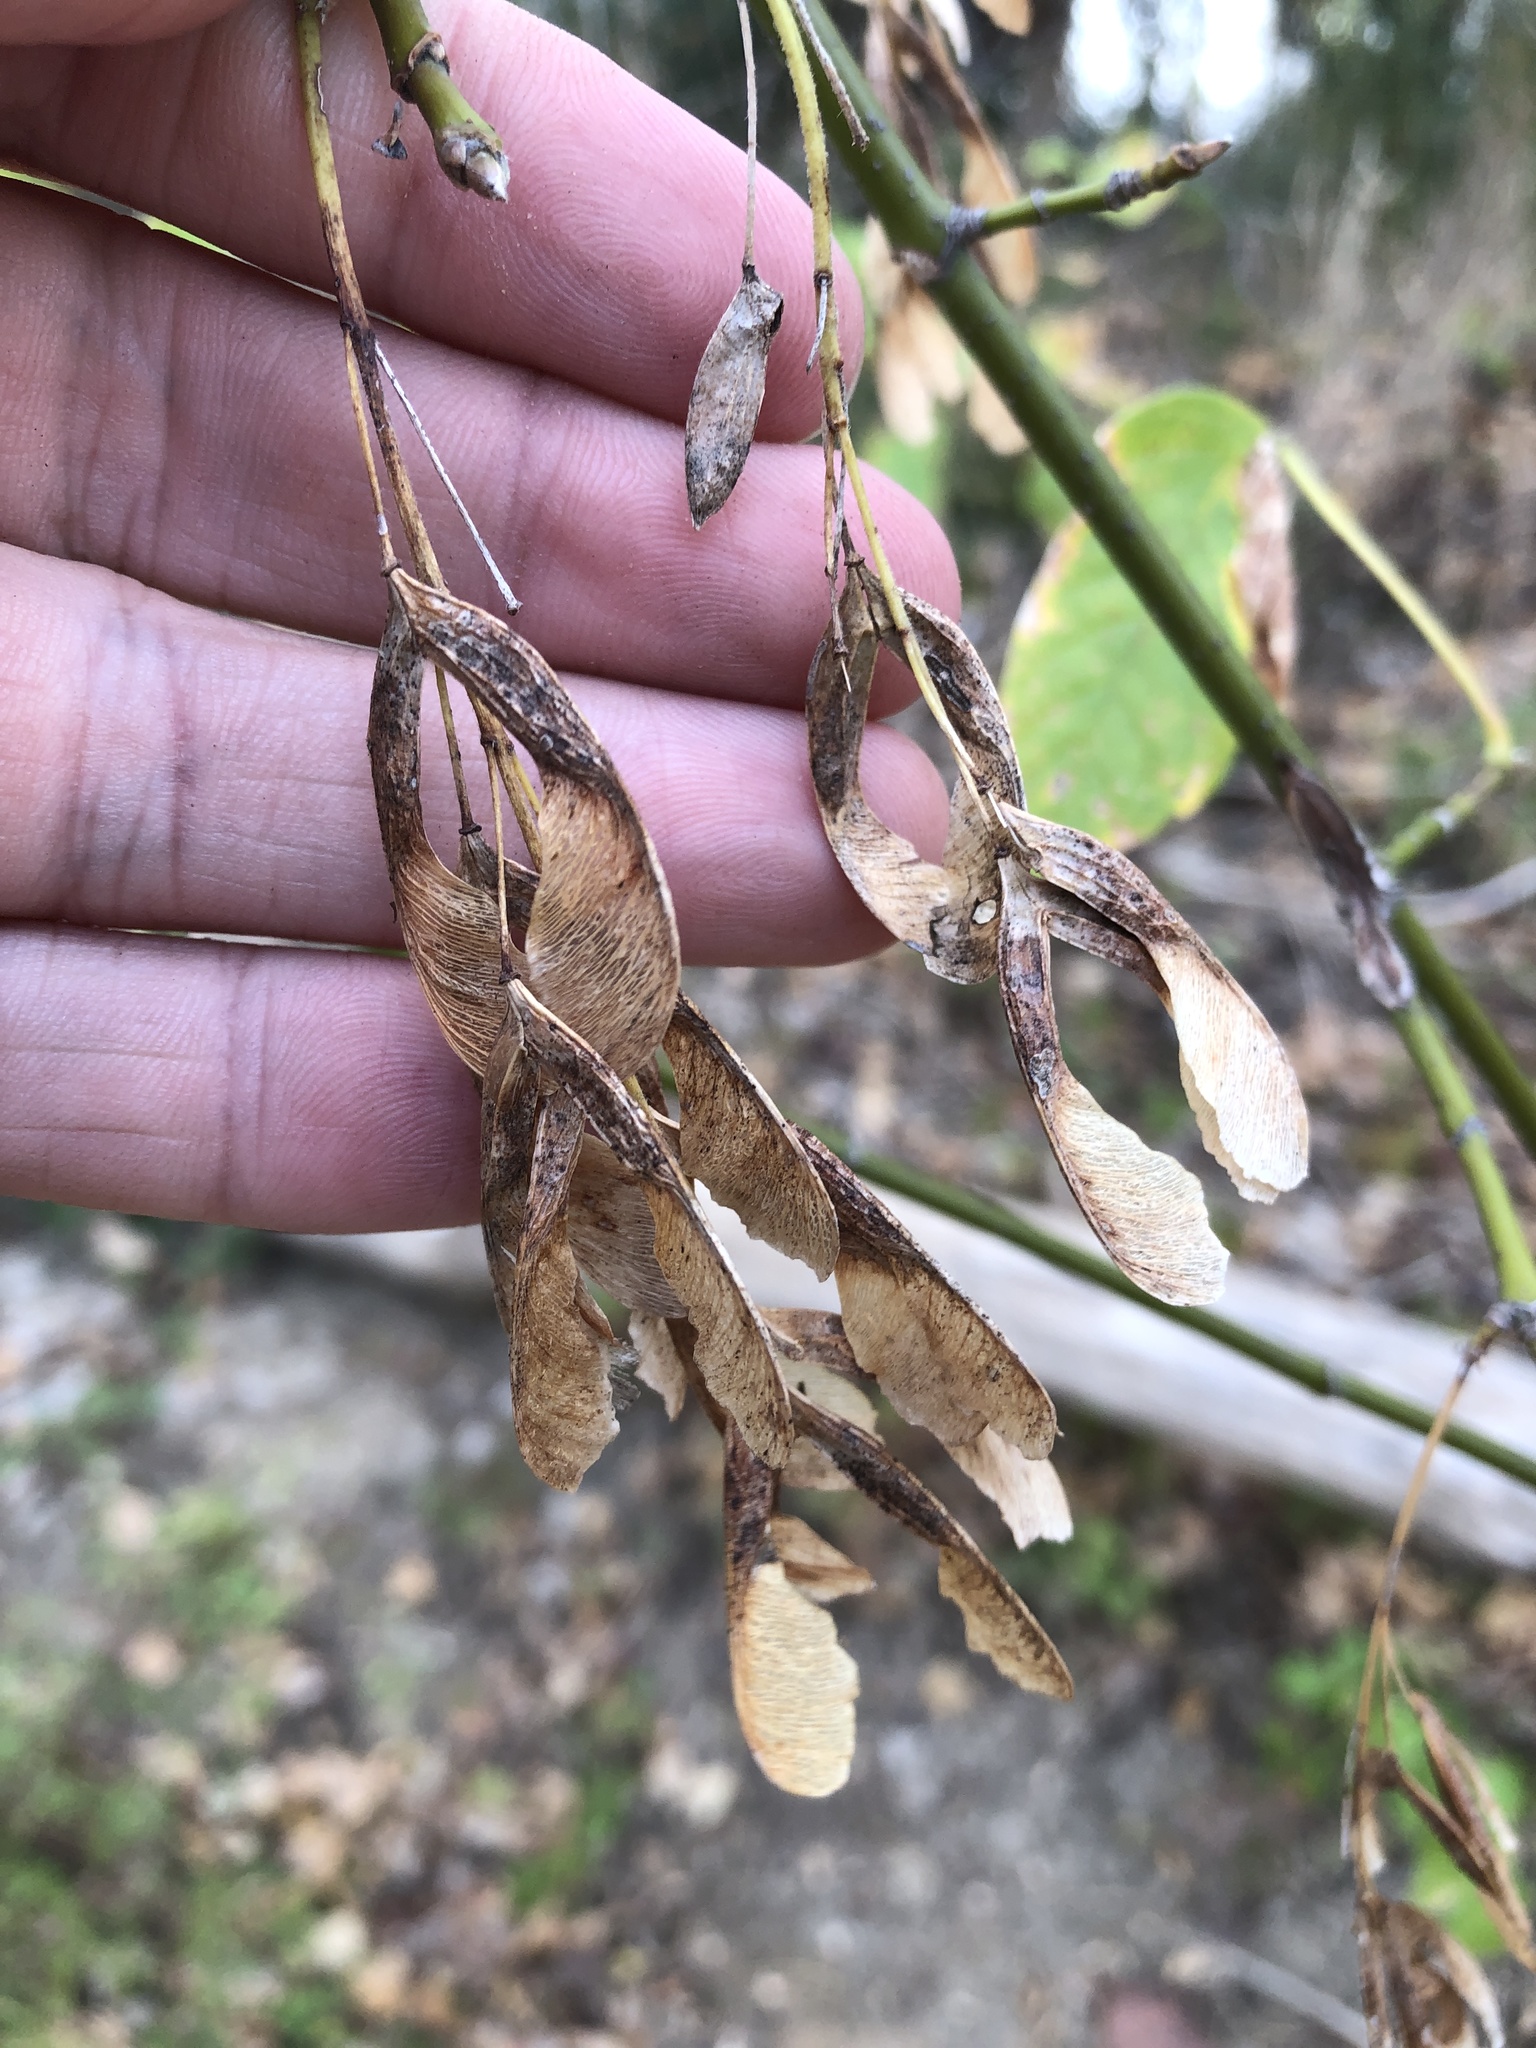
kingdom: Plantae
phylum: Tracheophyta
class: Magnoliopsida
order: Sapindales
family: Sapindaceae
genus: Acer
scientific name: Acer negundo
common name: Ashleaf maple
